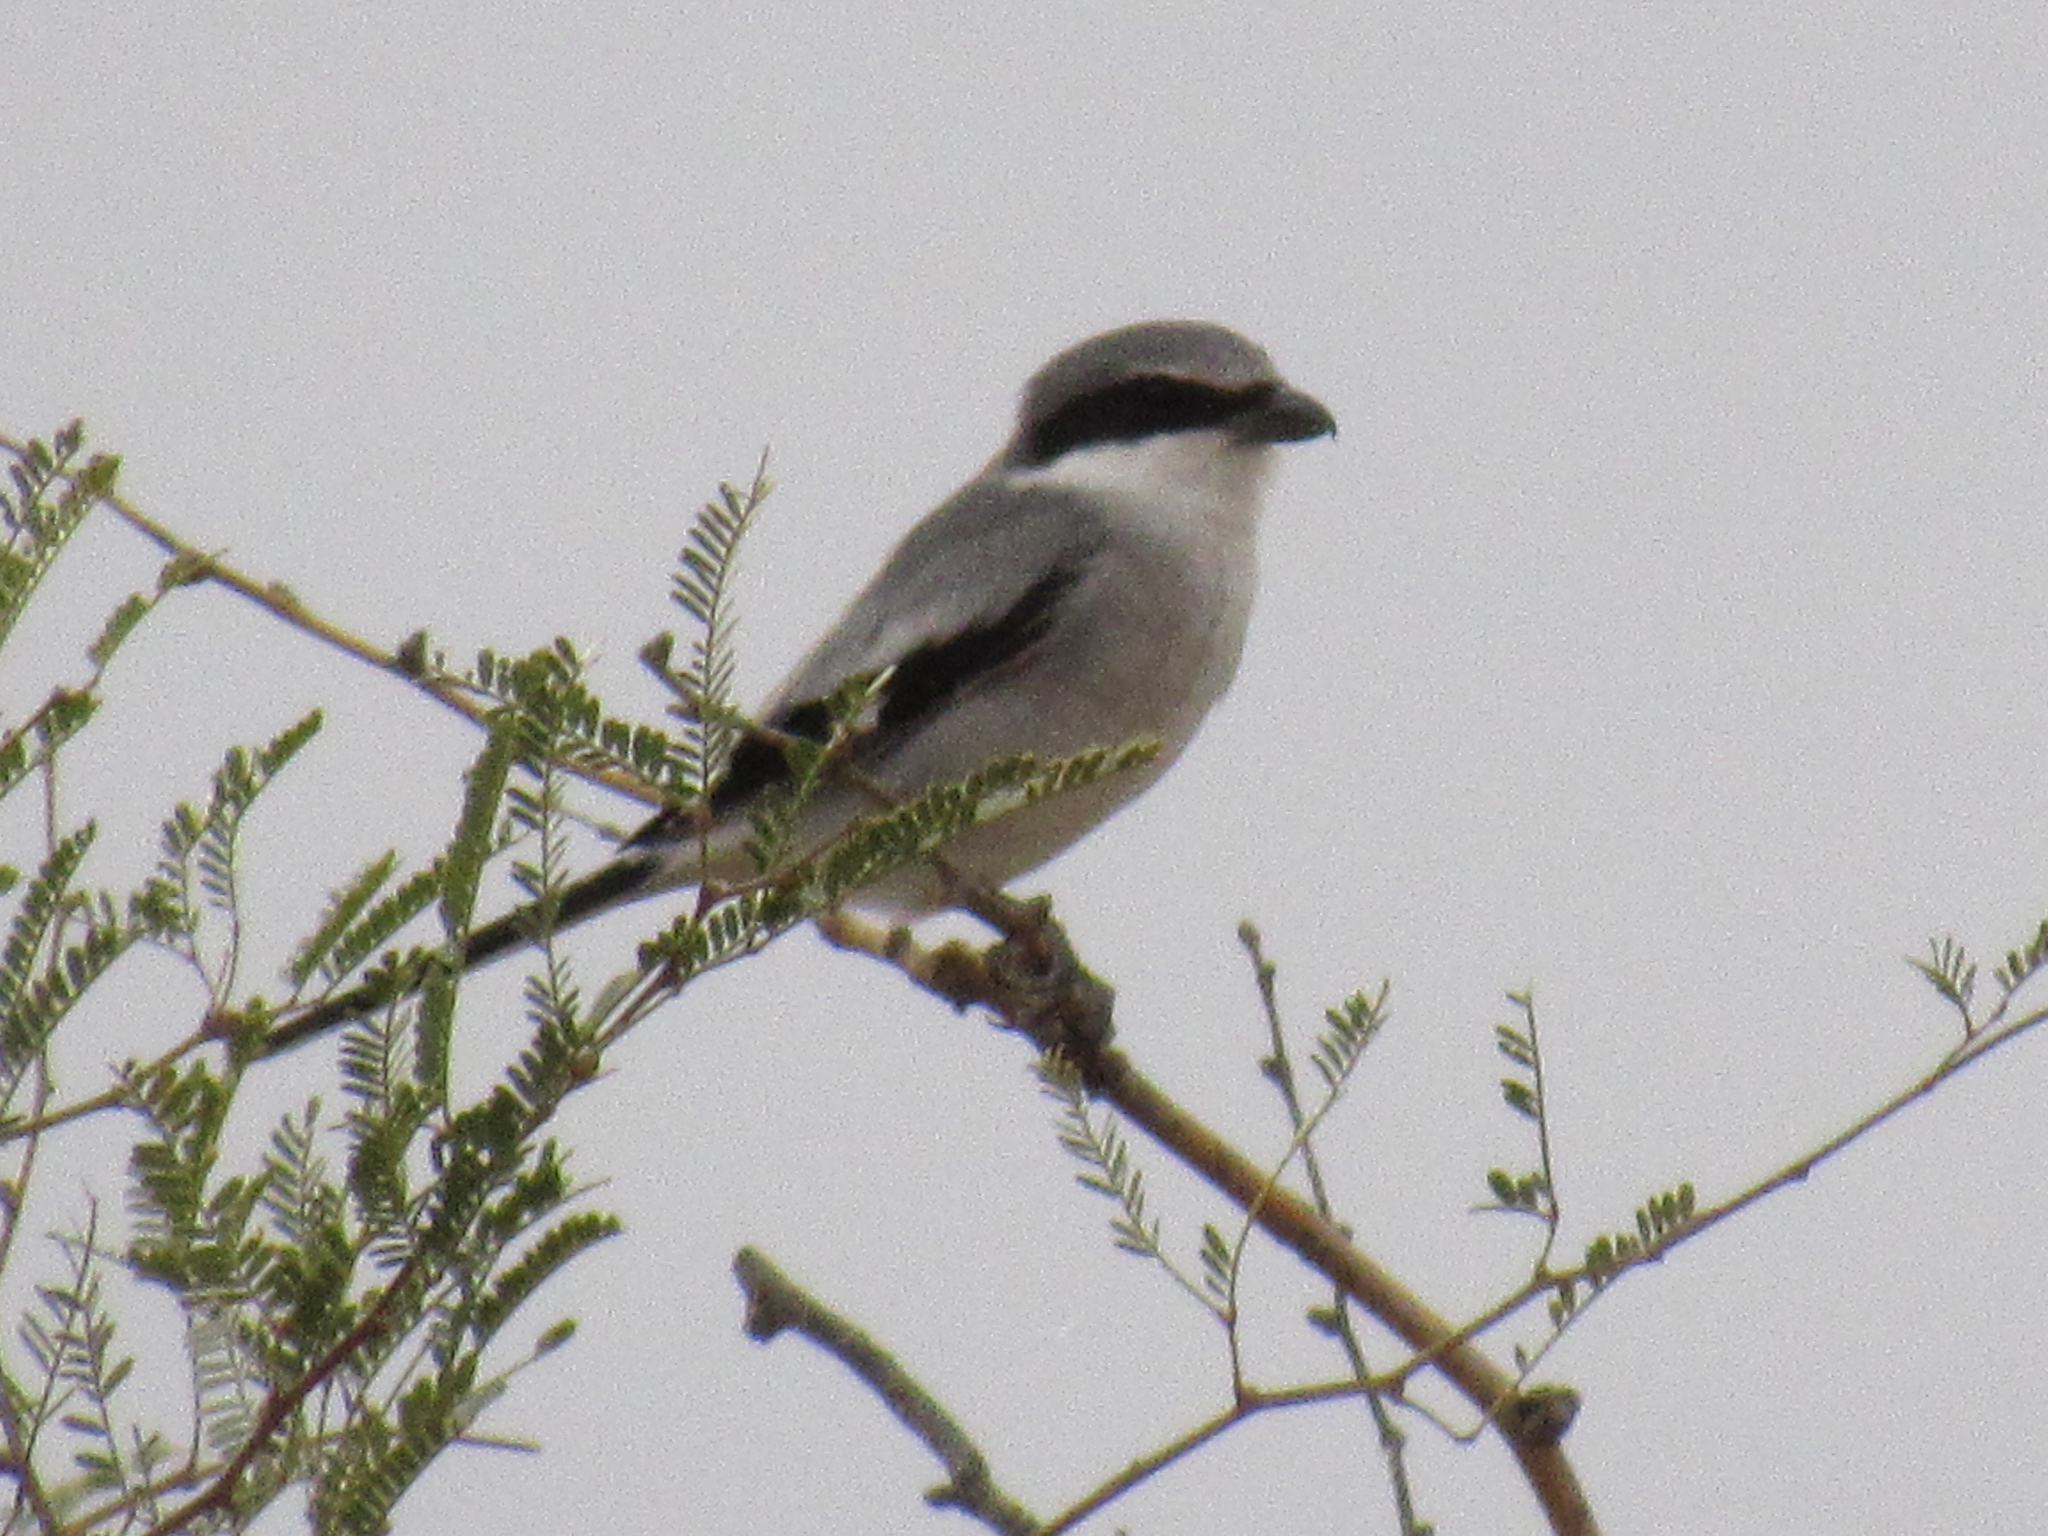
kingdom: Animalia
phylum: Chordata
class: Aves
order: Passeriformes
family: Laniidae
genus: Lanius
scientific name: Lanius ludovicianus
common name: Loggerhead shrike
